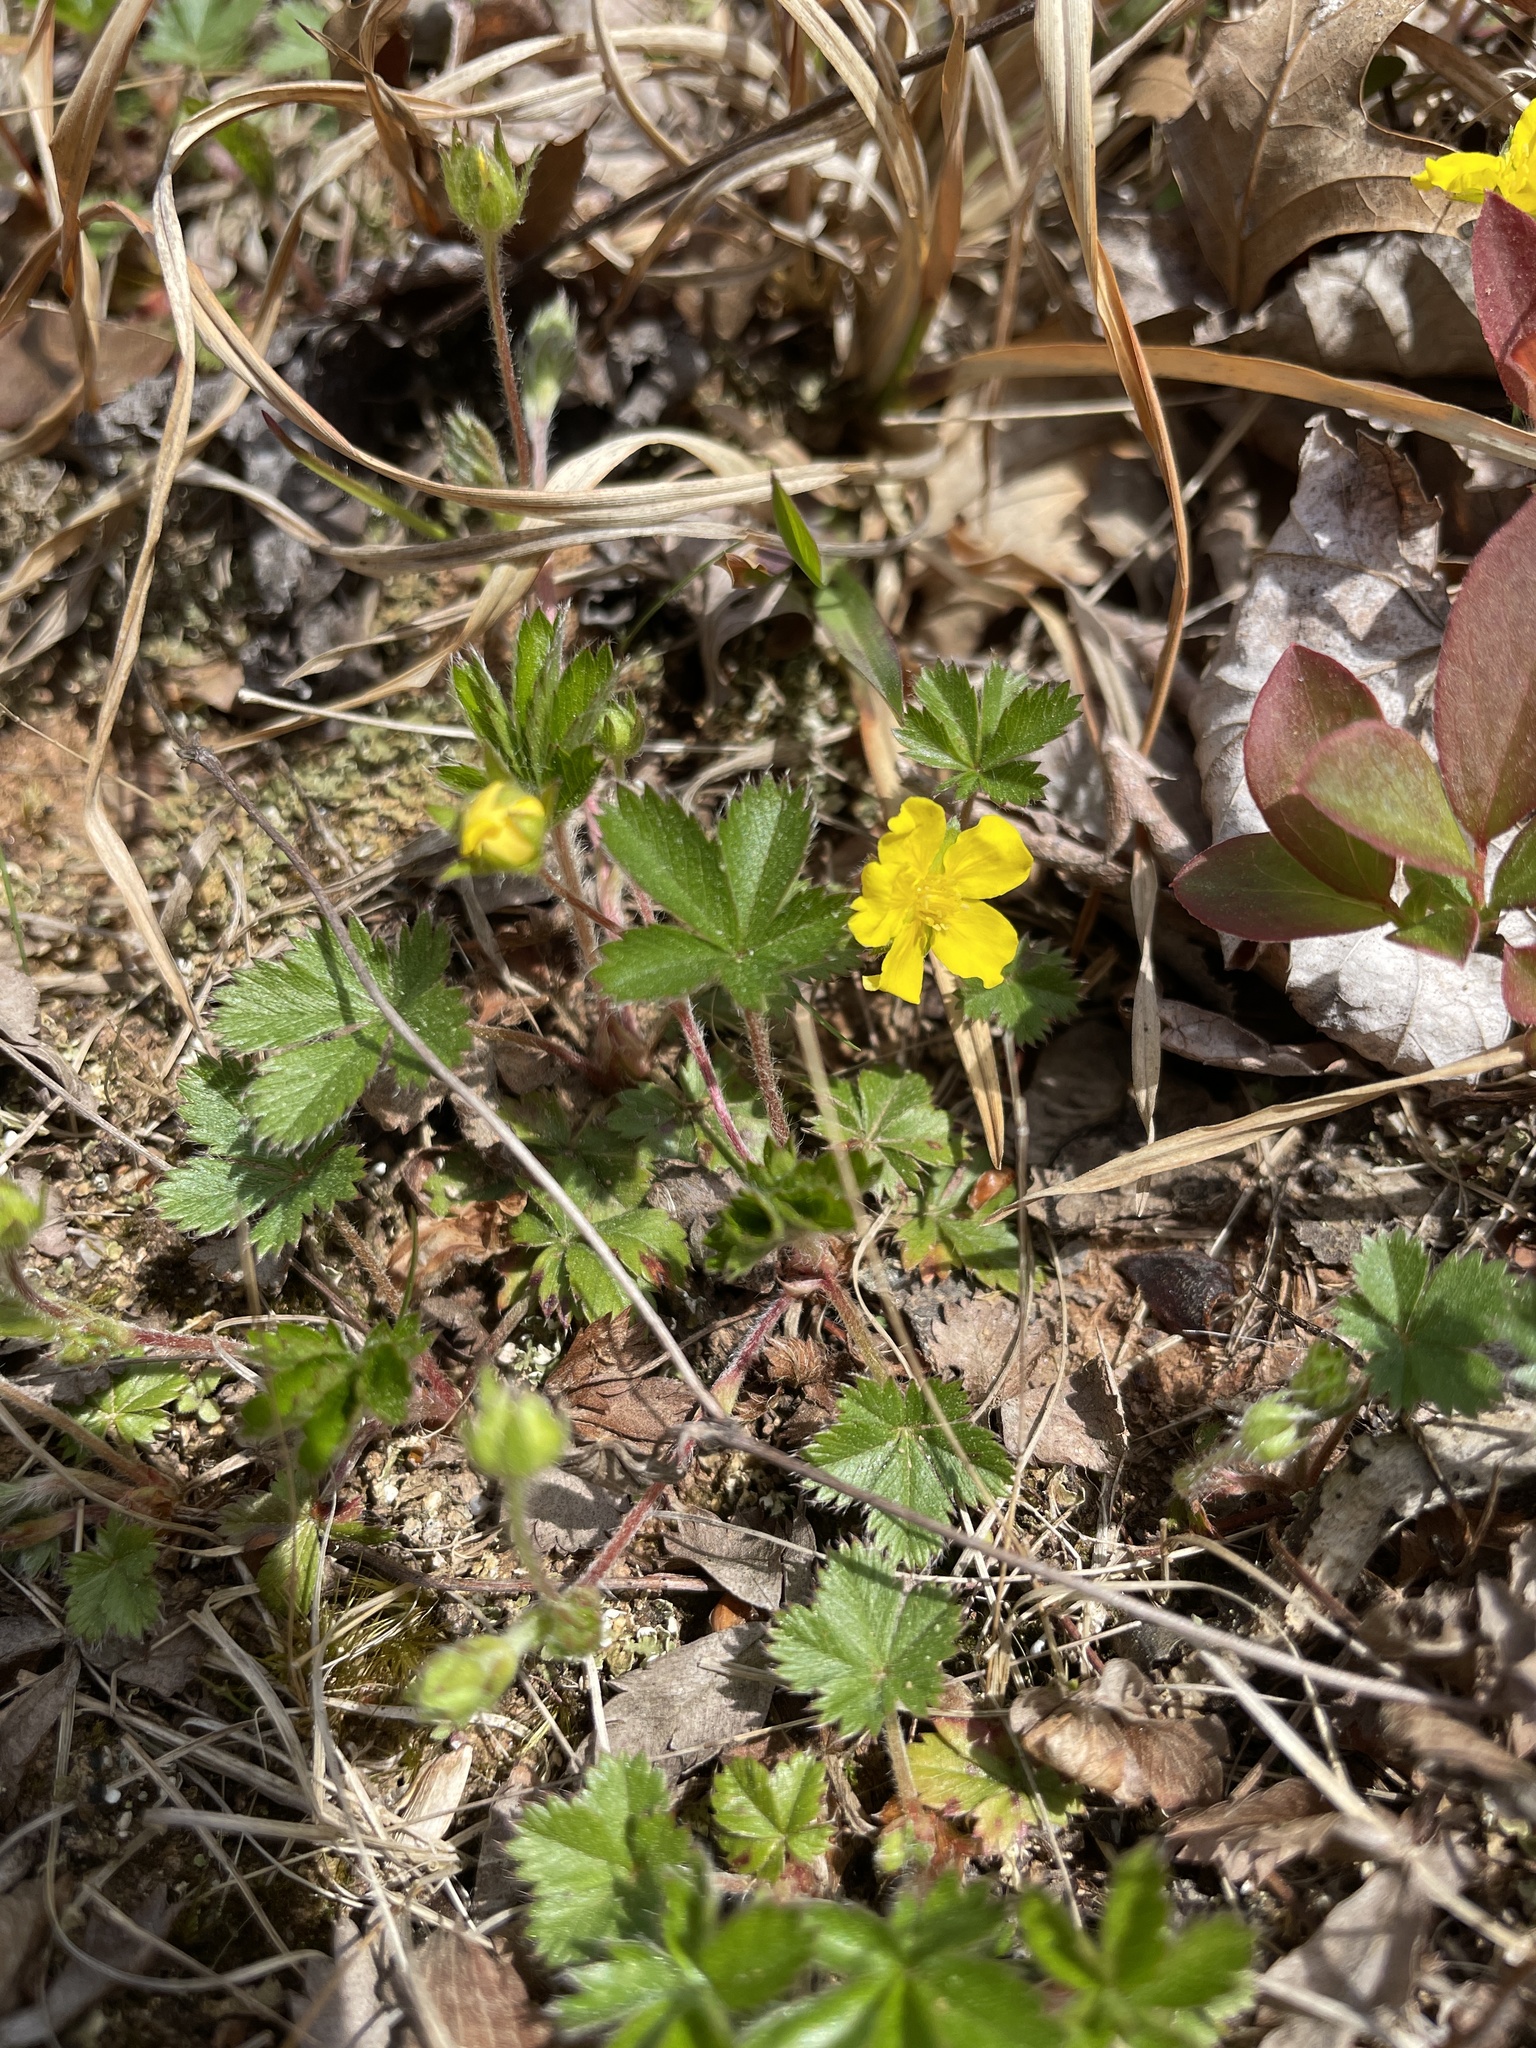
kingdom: Plantae
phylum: Tracheophyta
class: Magnoliopsida
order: Rosales
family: Rosaceae
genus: Potentilla
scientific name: Potentilla canadensis
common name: Canada cinquefoil
